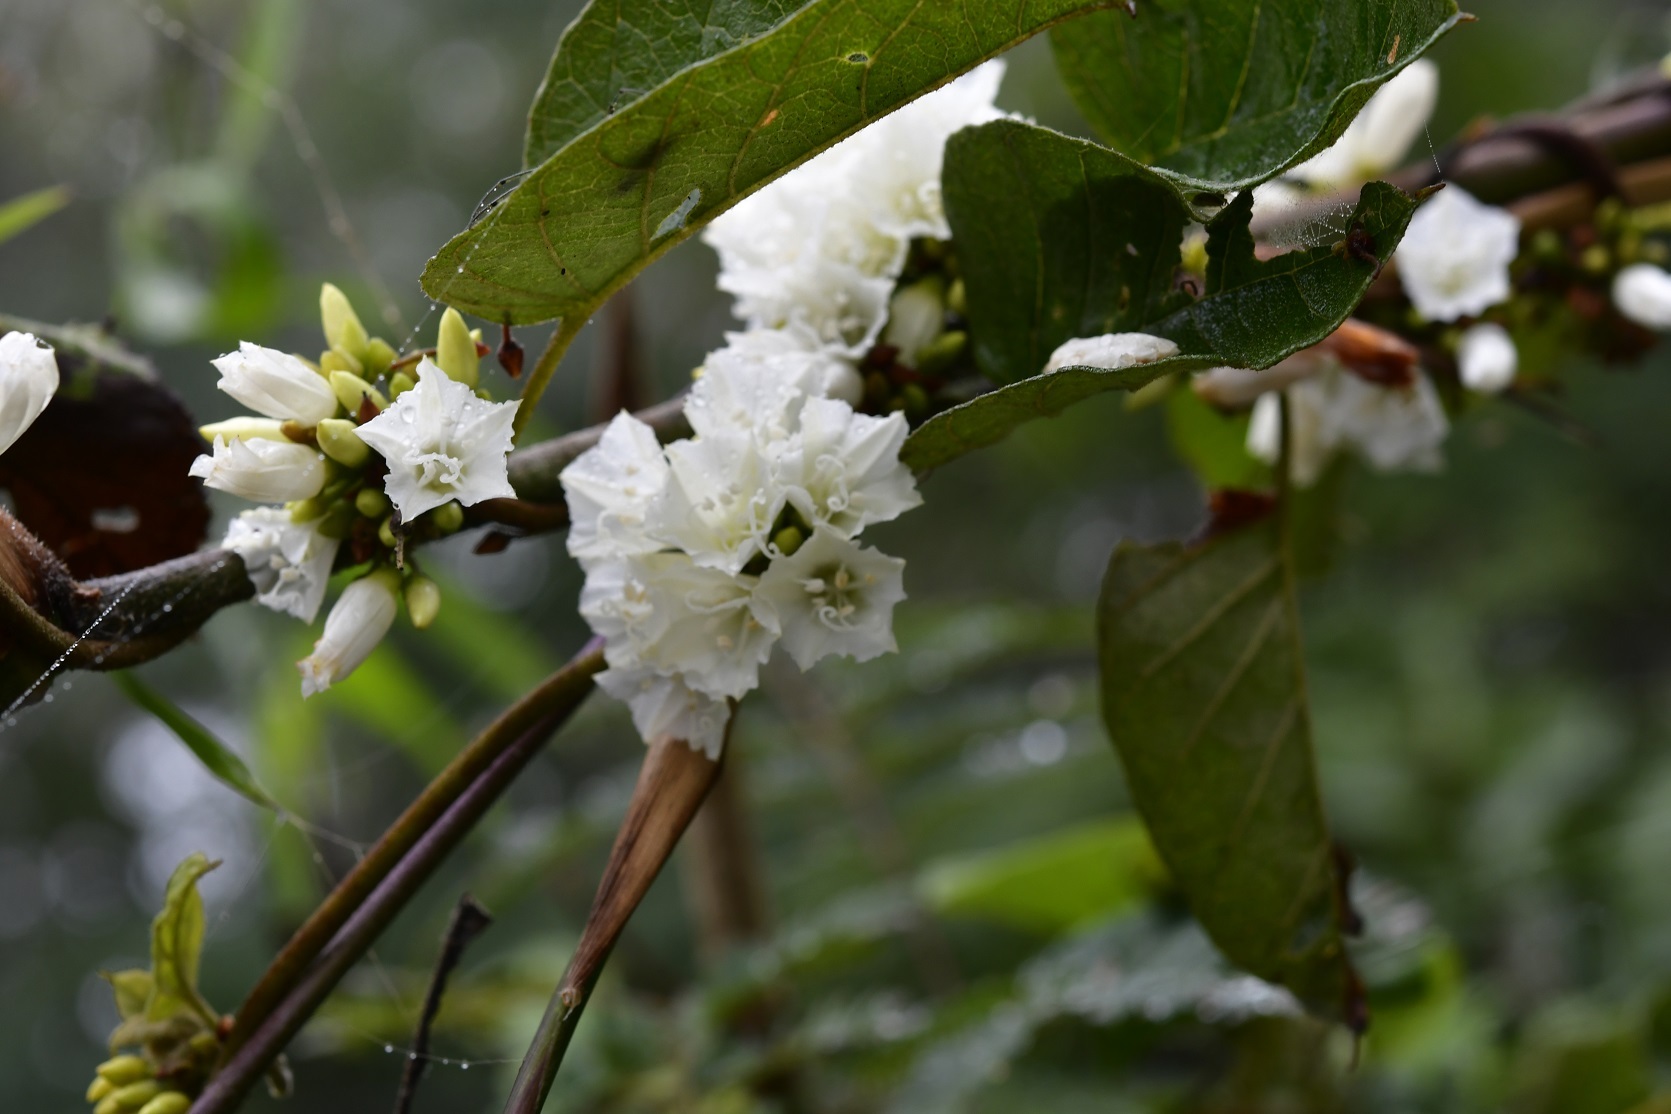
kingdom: Plantae
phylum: Tracheophyta
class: Magnoliopsida
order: Solanales
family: Convolvulaceae
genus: Jacquemontia
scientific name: Jacquemontia nodiflora
